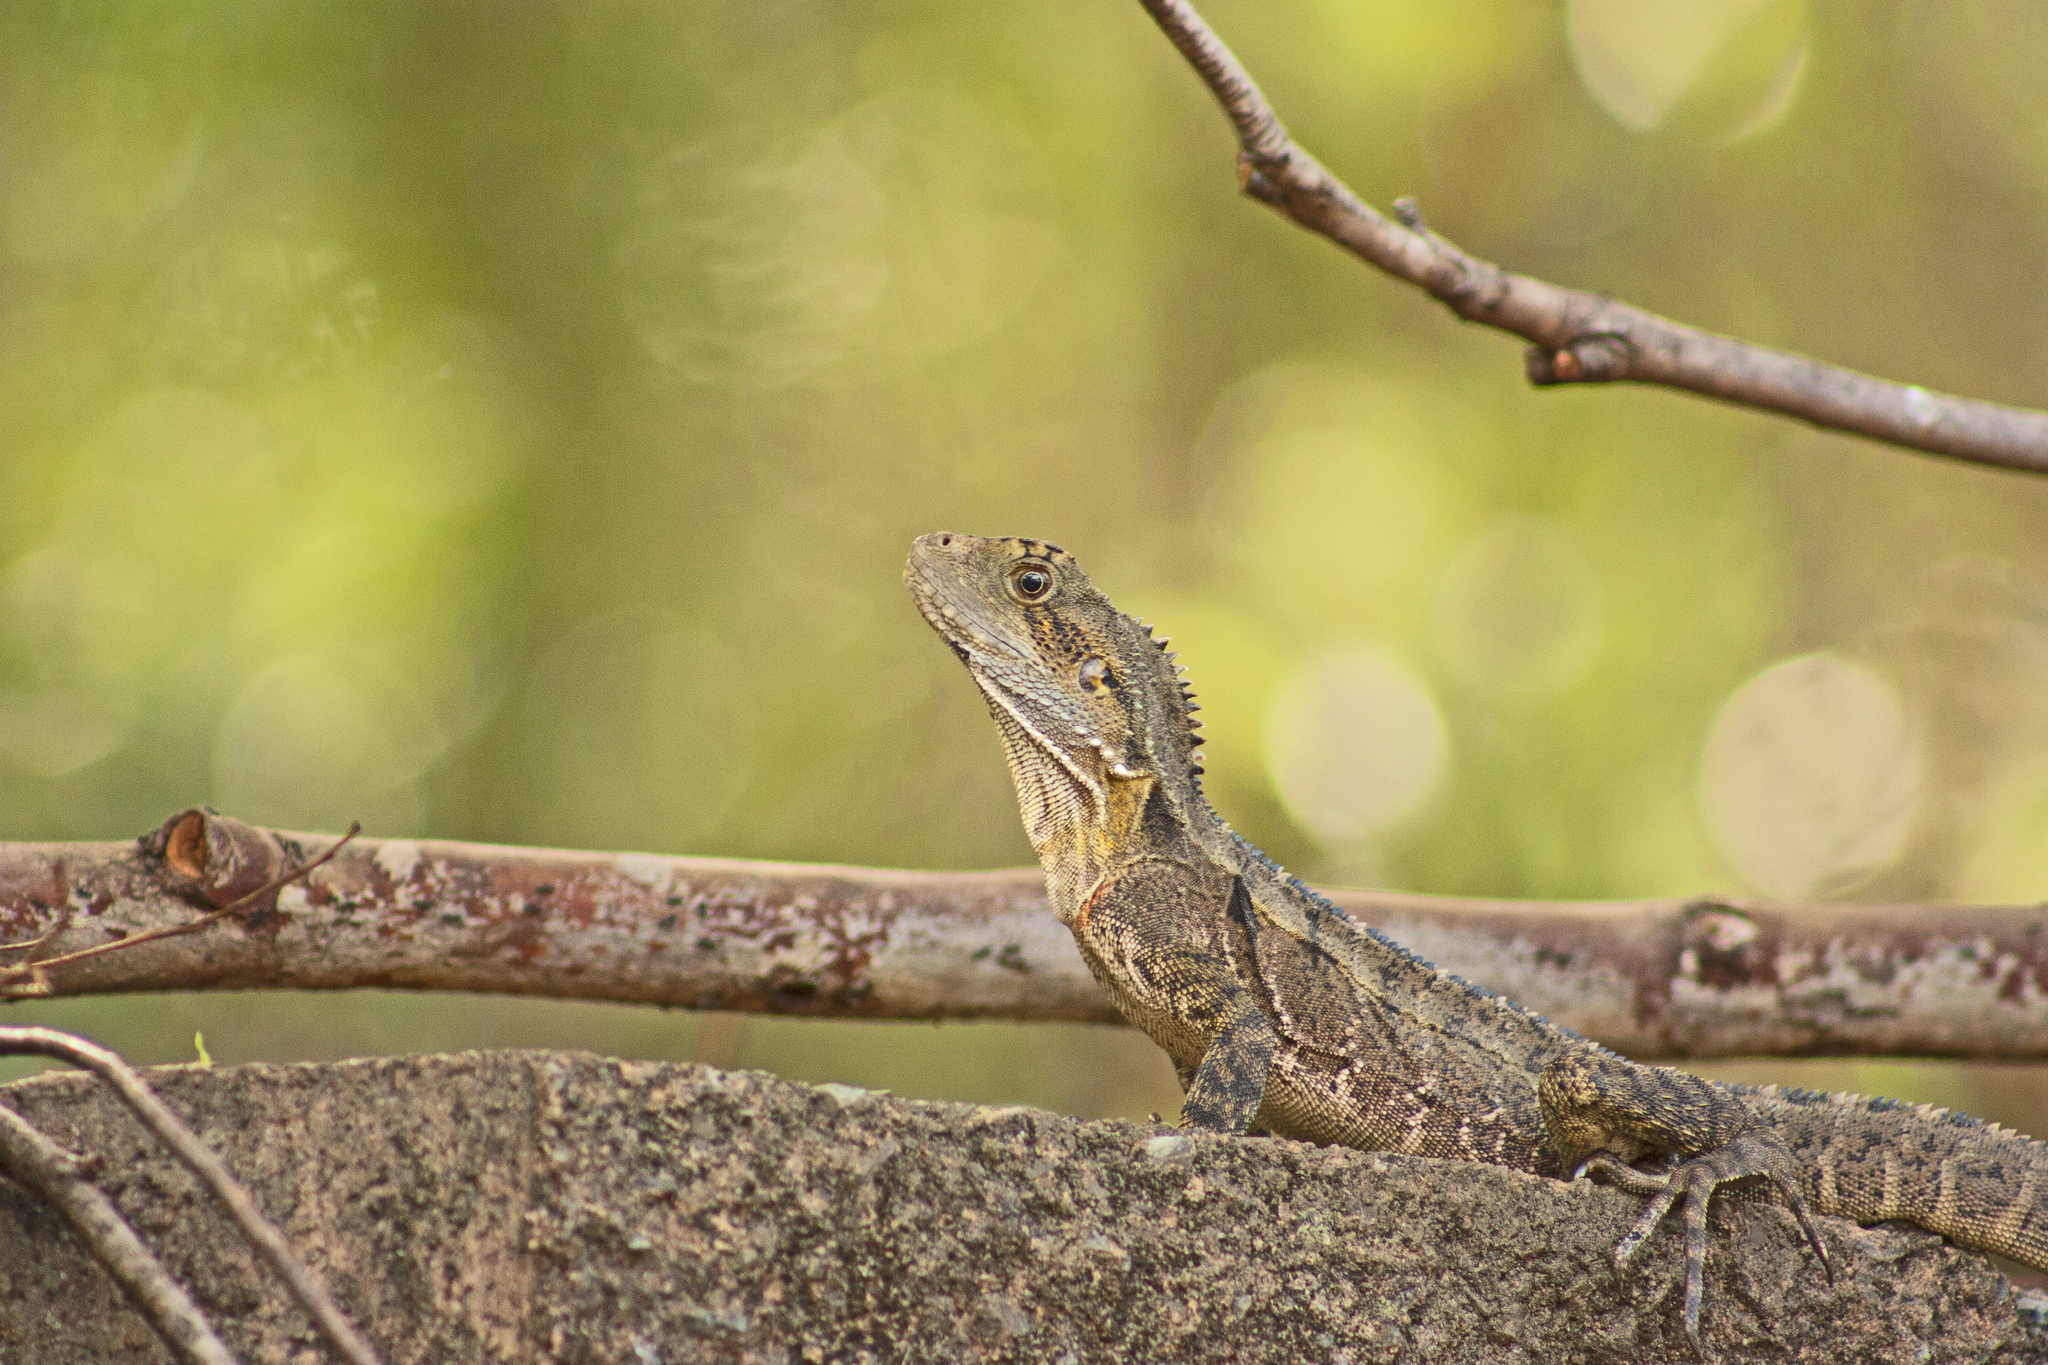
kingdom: Animalia
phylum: Chordata
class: Squamata
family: Agamidae
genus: Intellagama
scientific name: Intellagama lesueurii
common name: Eastern water dragon
